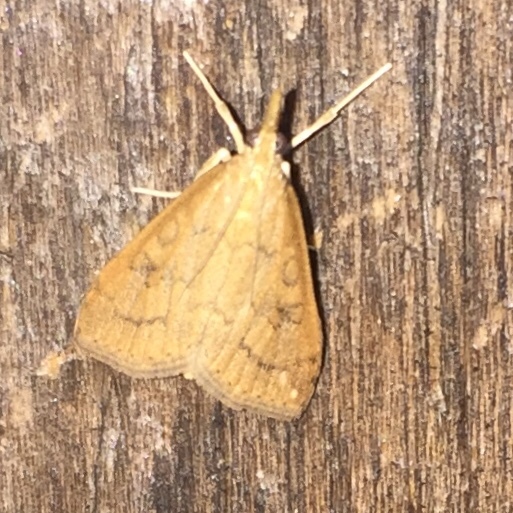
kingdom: Animalia
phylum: Arthropoda
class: Insecta
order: Lepidoptera
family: Crambidae
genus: Udea
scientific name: Udea rubigalis
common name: Celery leaftier moth
